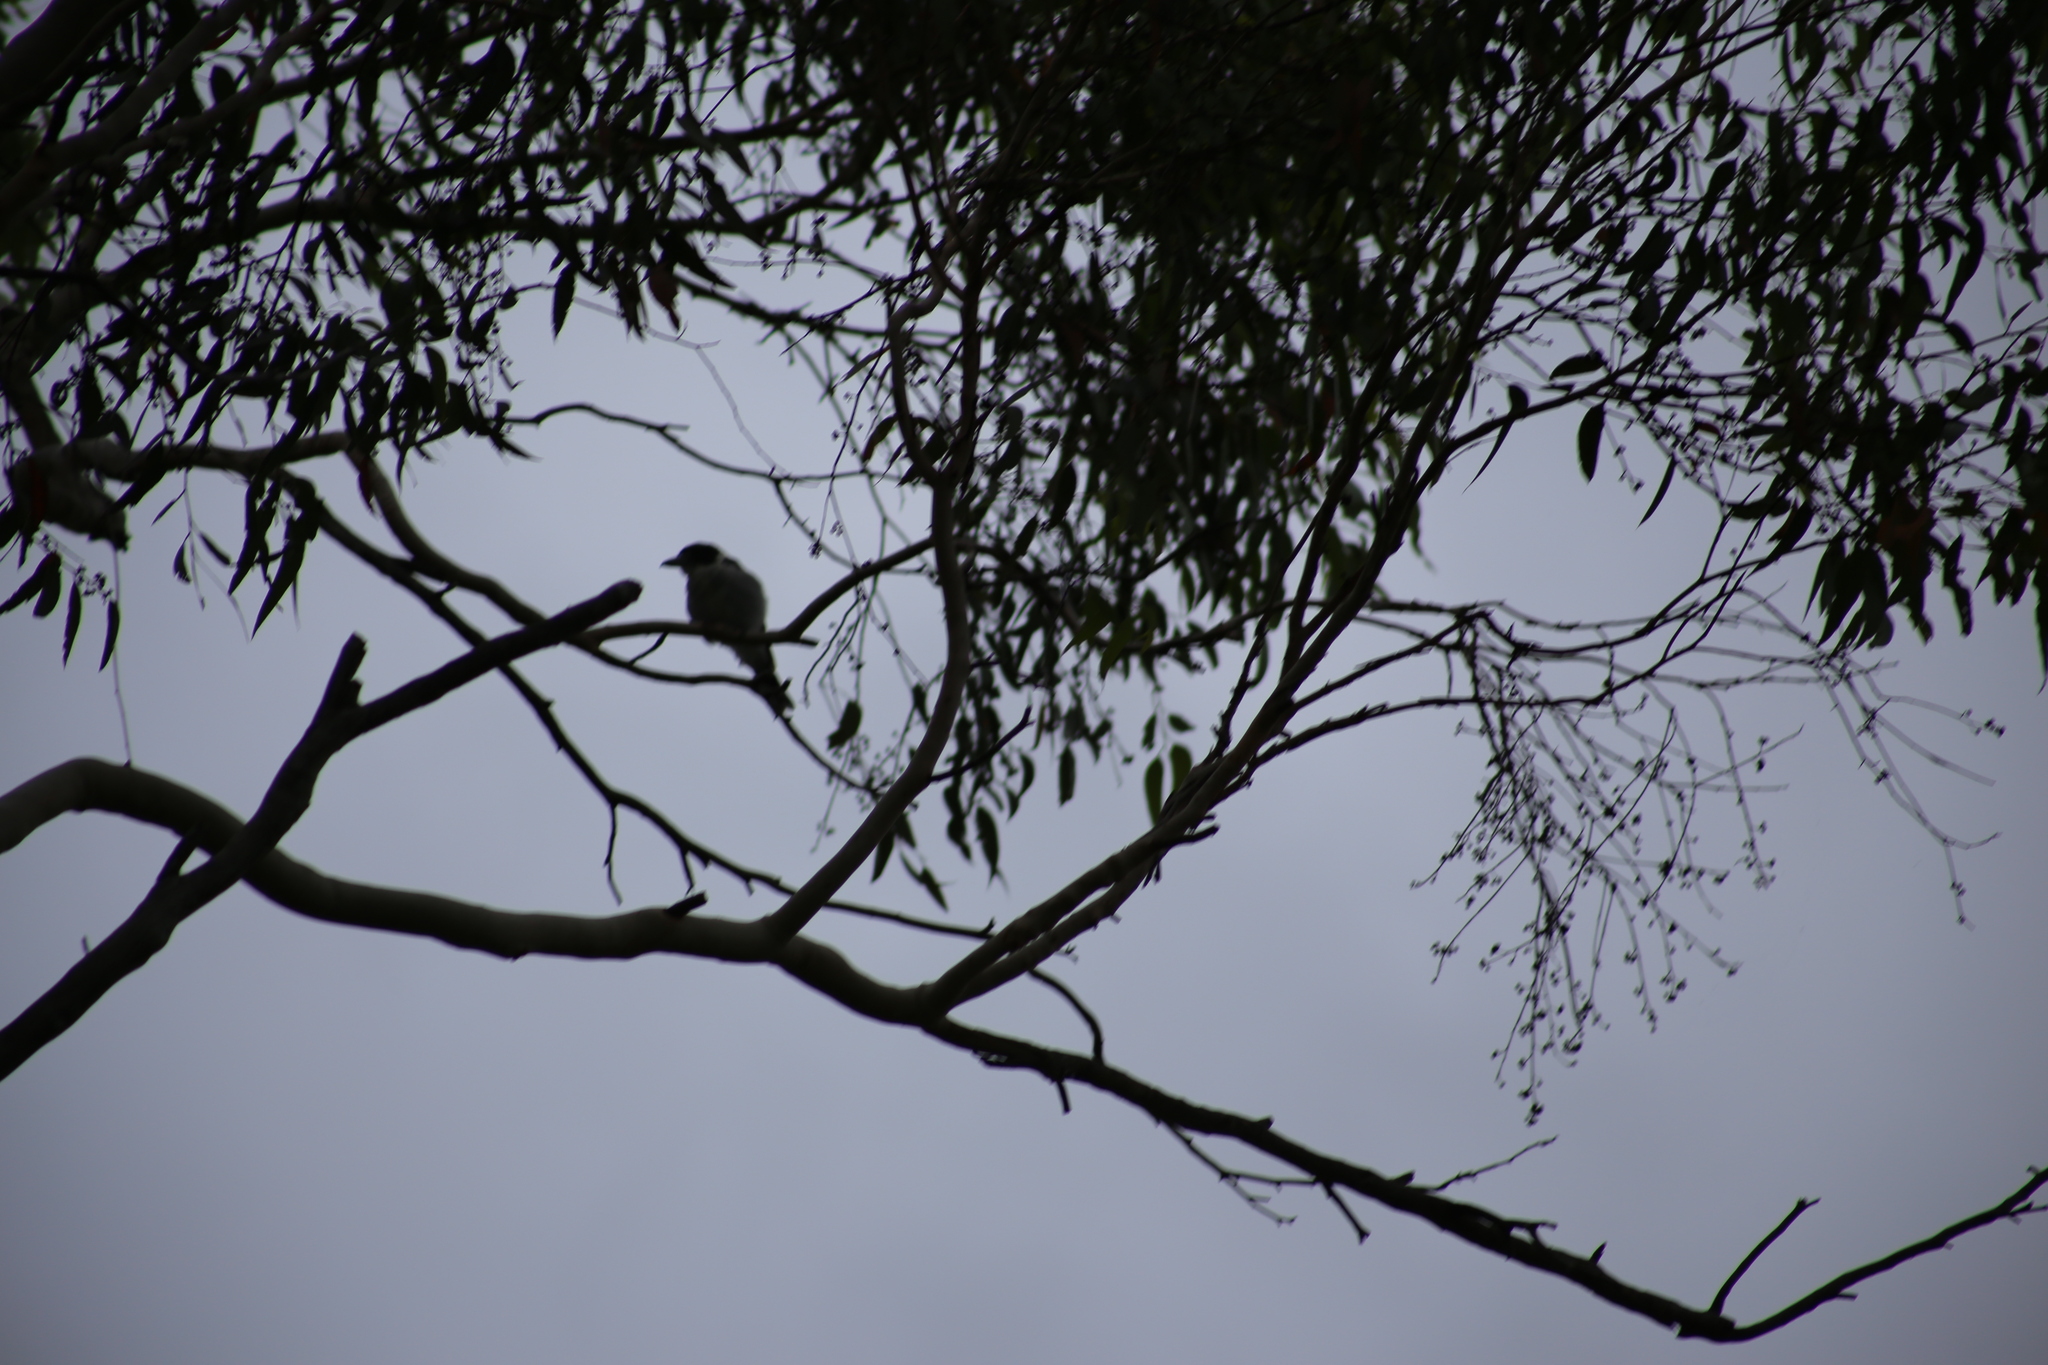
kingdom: Animalia
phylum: Chordata
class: Aves
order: Passeriformes
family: Cracticidae
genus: Cracticus
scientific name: Cracticus torquatus
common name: Grey butcherbird
